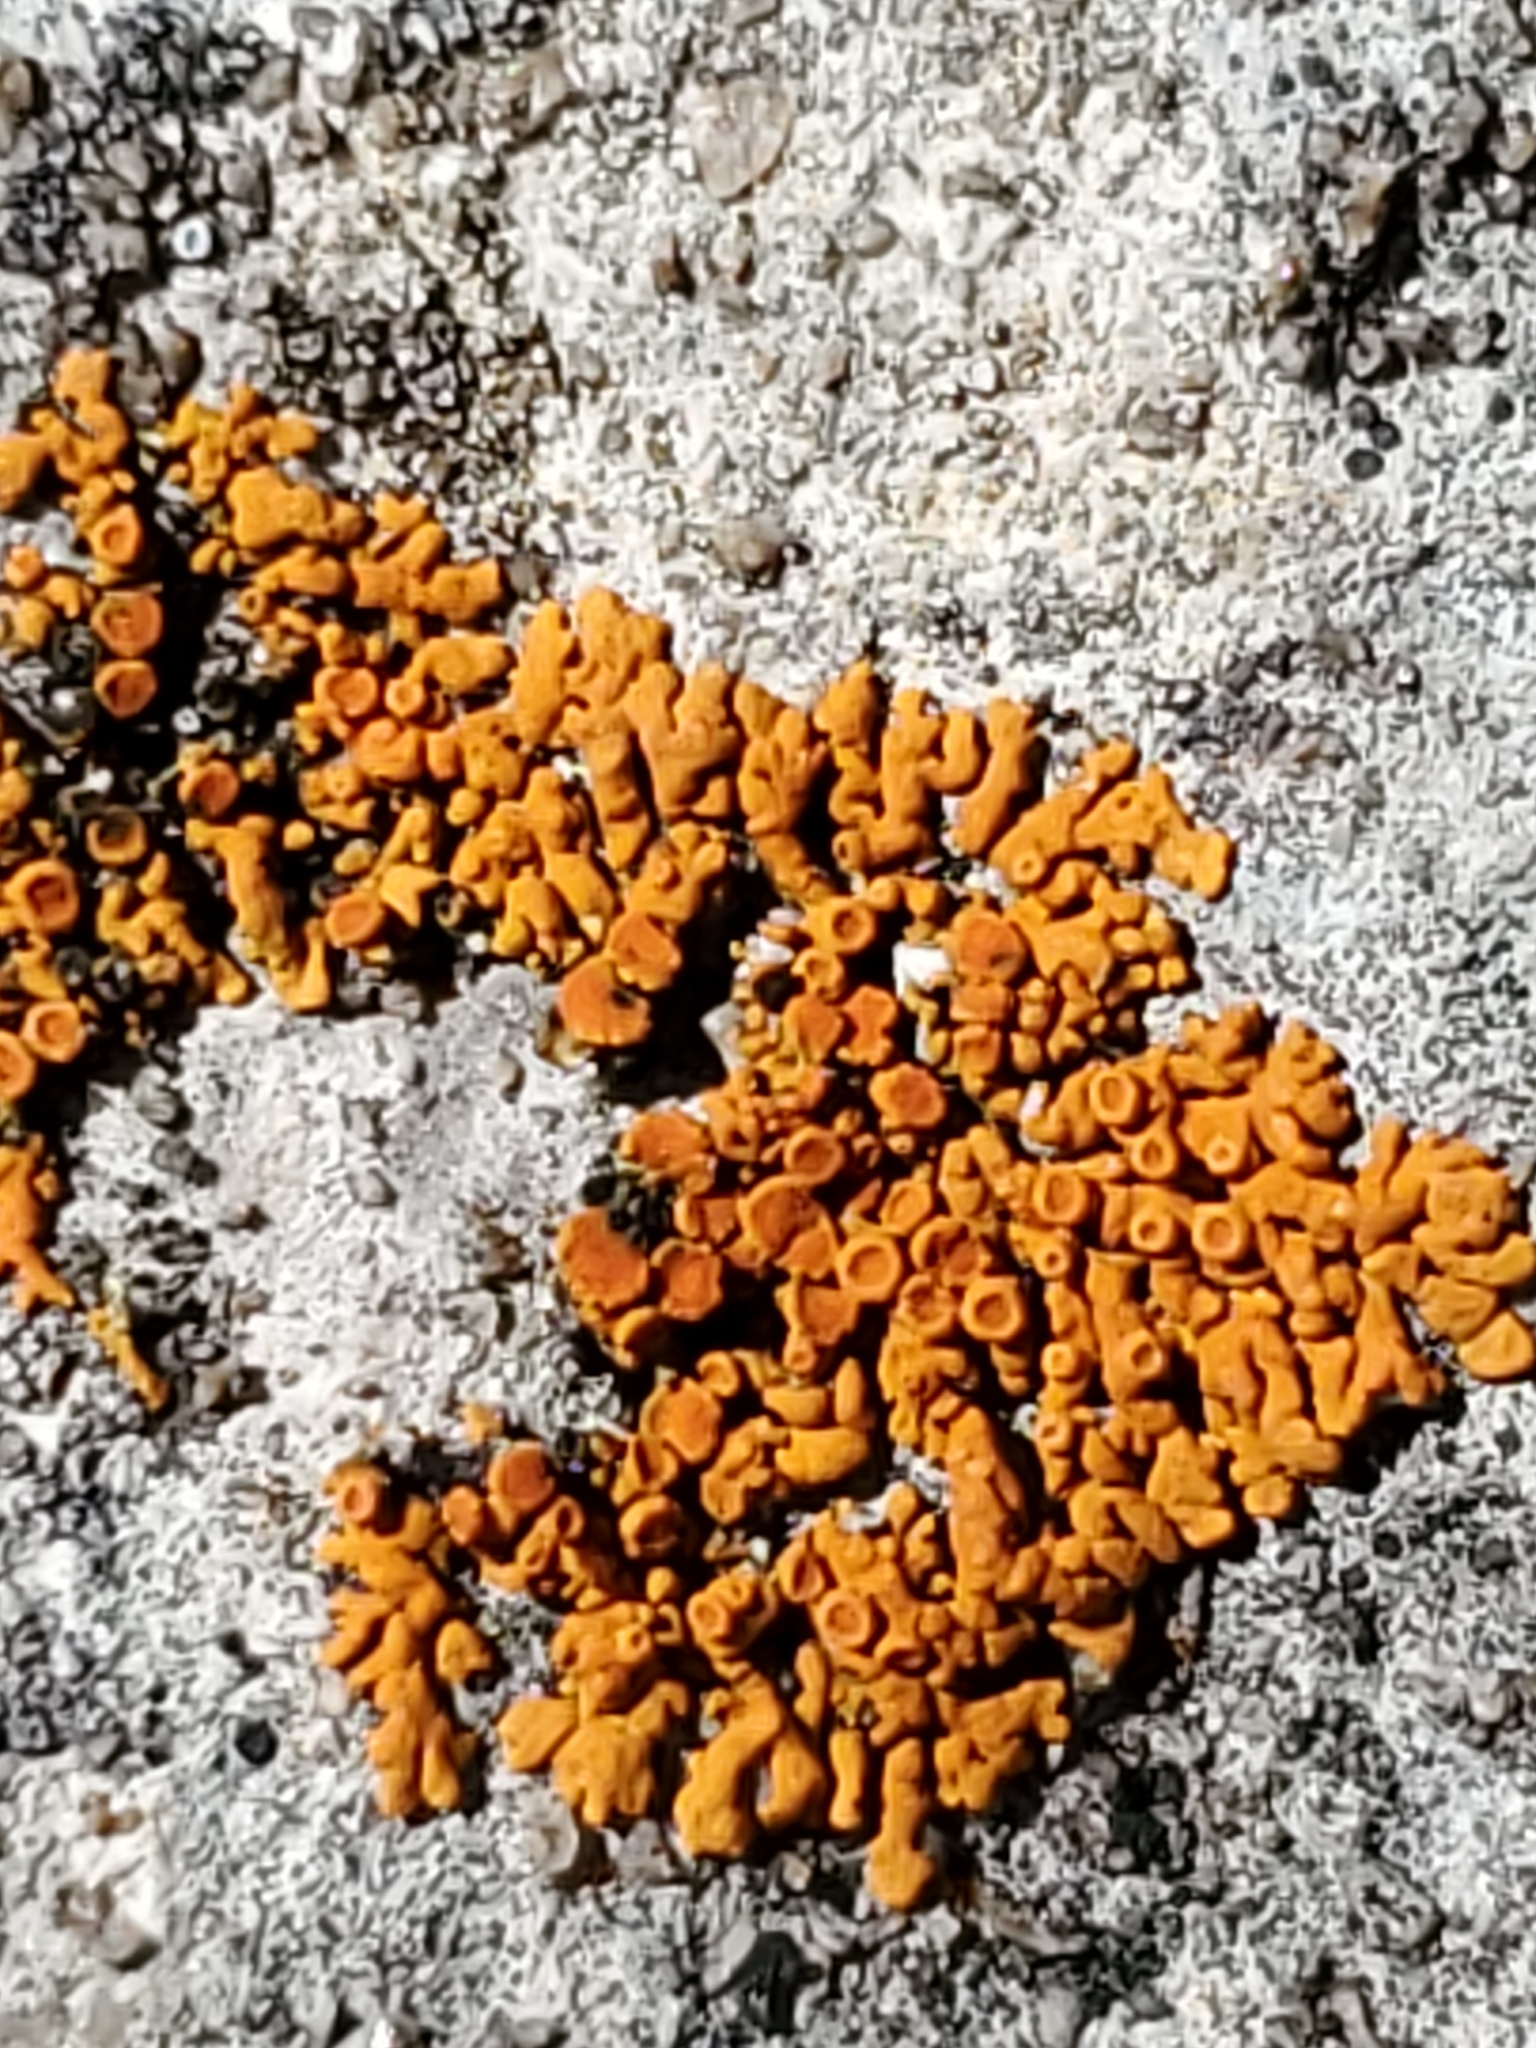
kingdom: Fungi
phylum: Ascomycota
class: Lecanoromycetes
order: Teloschistales
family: Teloschistaceae
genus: Xanthoria
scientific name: Xanthoria elegans
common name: Elegant sunburst lichen
